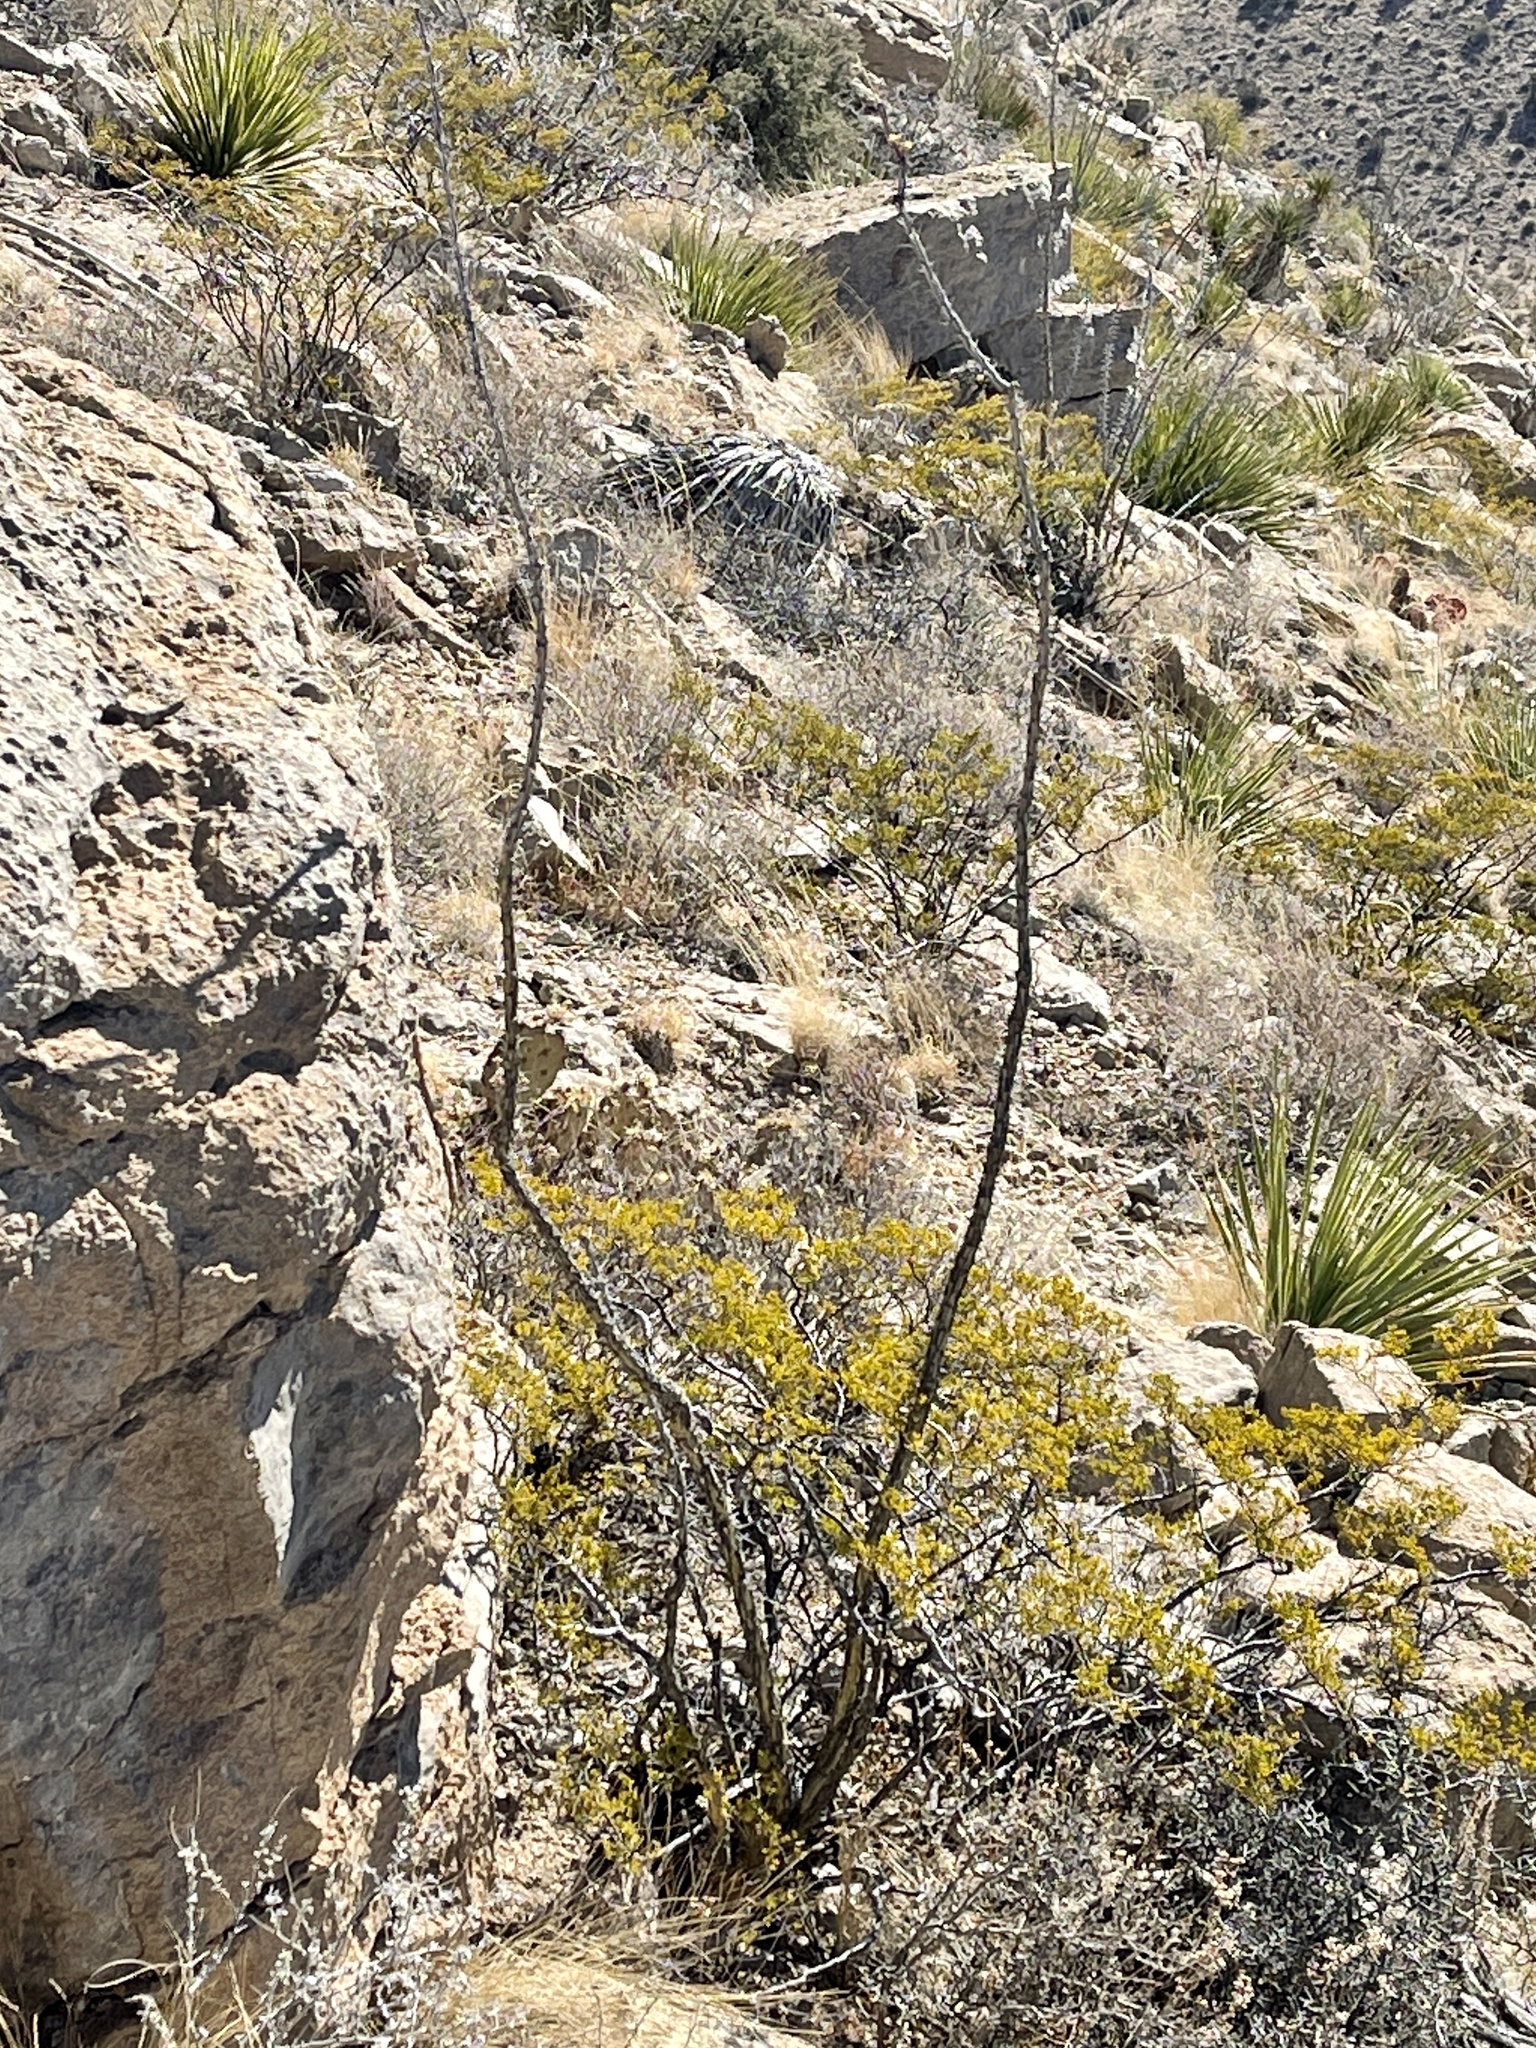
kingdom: Plantae
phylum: Tracheophyta
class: Magnoliopsida
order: Ericales
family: Fouquieriaceae
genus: Fouquieria
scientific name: Fouquieria splendens
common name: Vine-cactus
